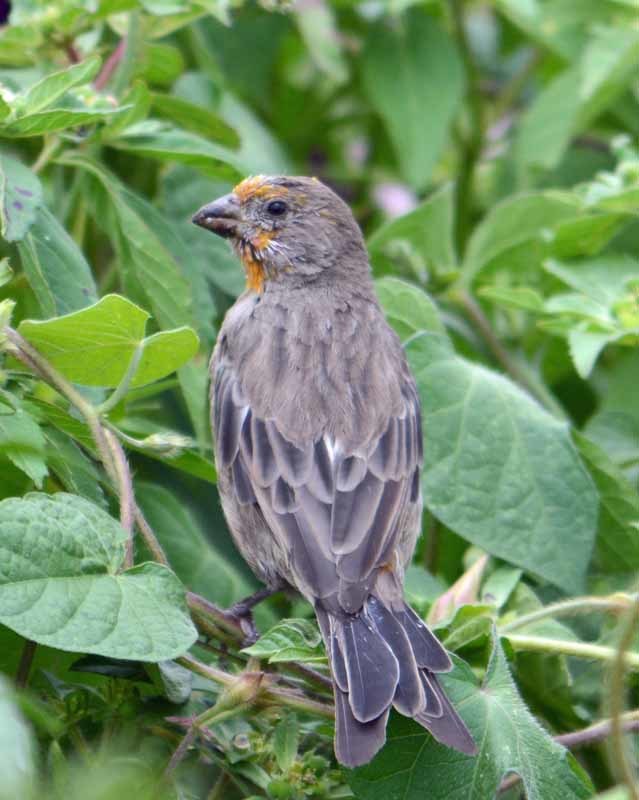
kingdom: Animalia
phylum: Chordata
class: Aves
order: Passeriformes
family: Fringillidae
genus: Haemorhous
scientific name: Haemorhous mexicanus
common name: House finch
